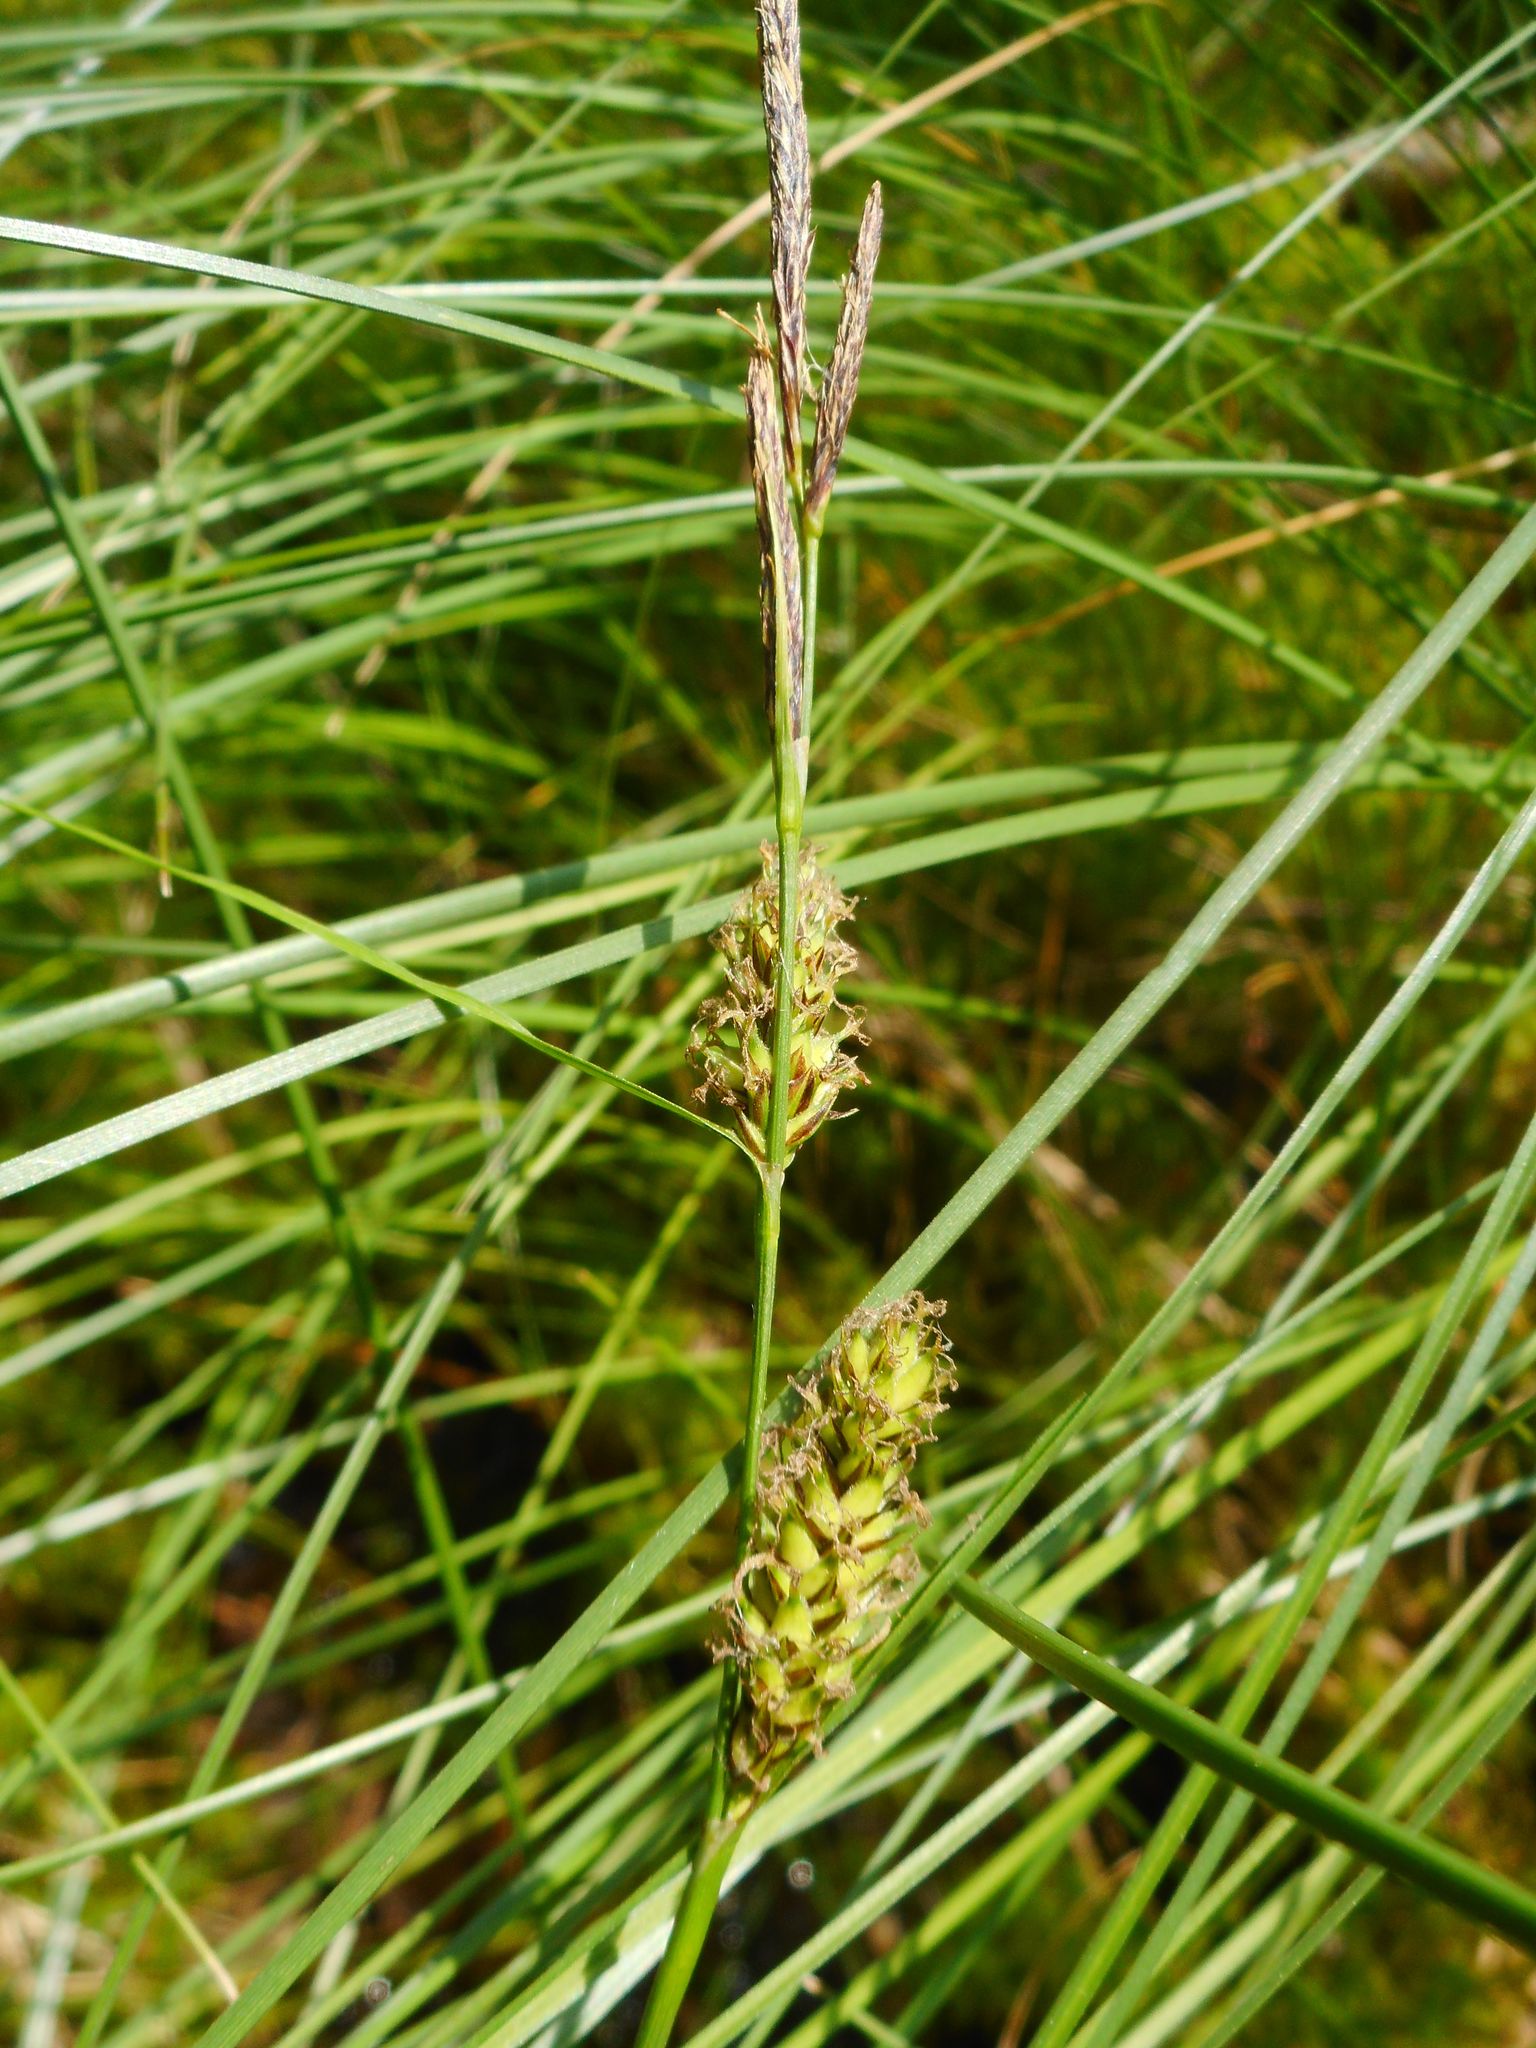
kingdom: Plantae
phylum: Tracheophyta
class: Liliopsida
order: Poales
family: Cyperaceae
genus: Carex
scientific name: Carex lasiocarpa
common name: Slender sedge
